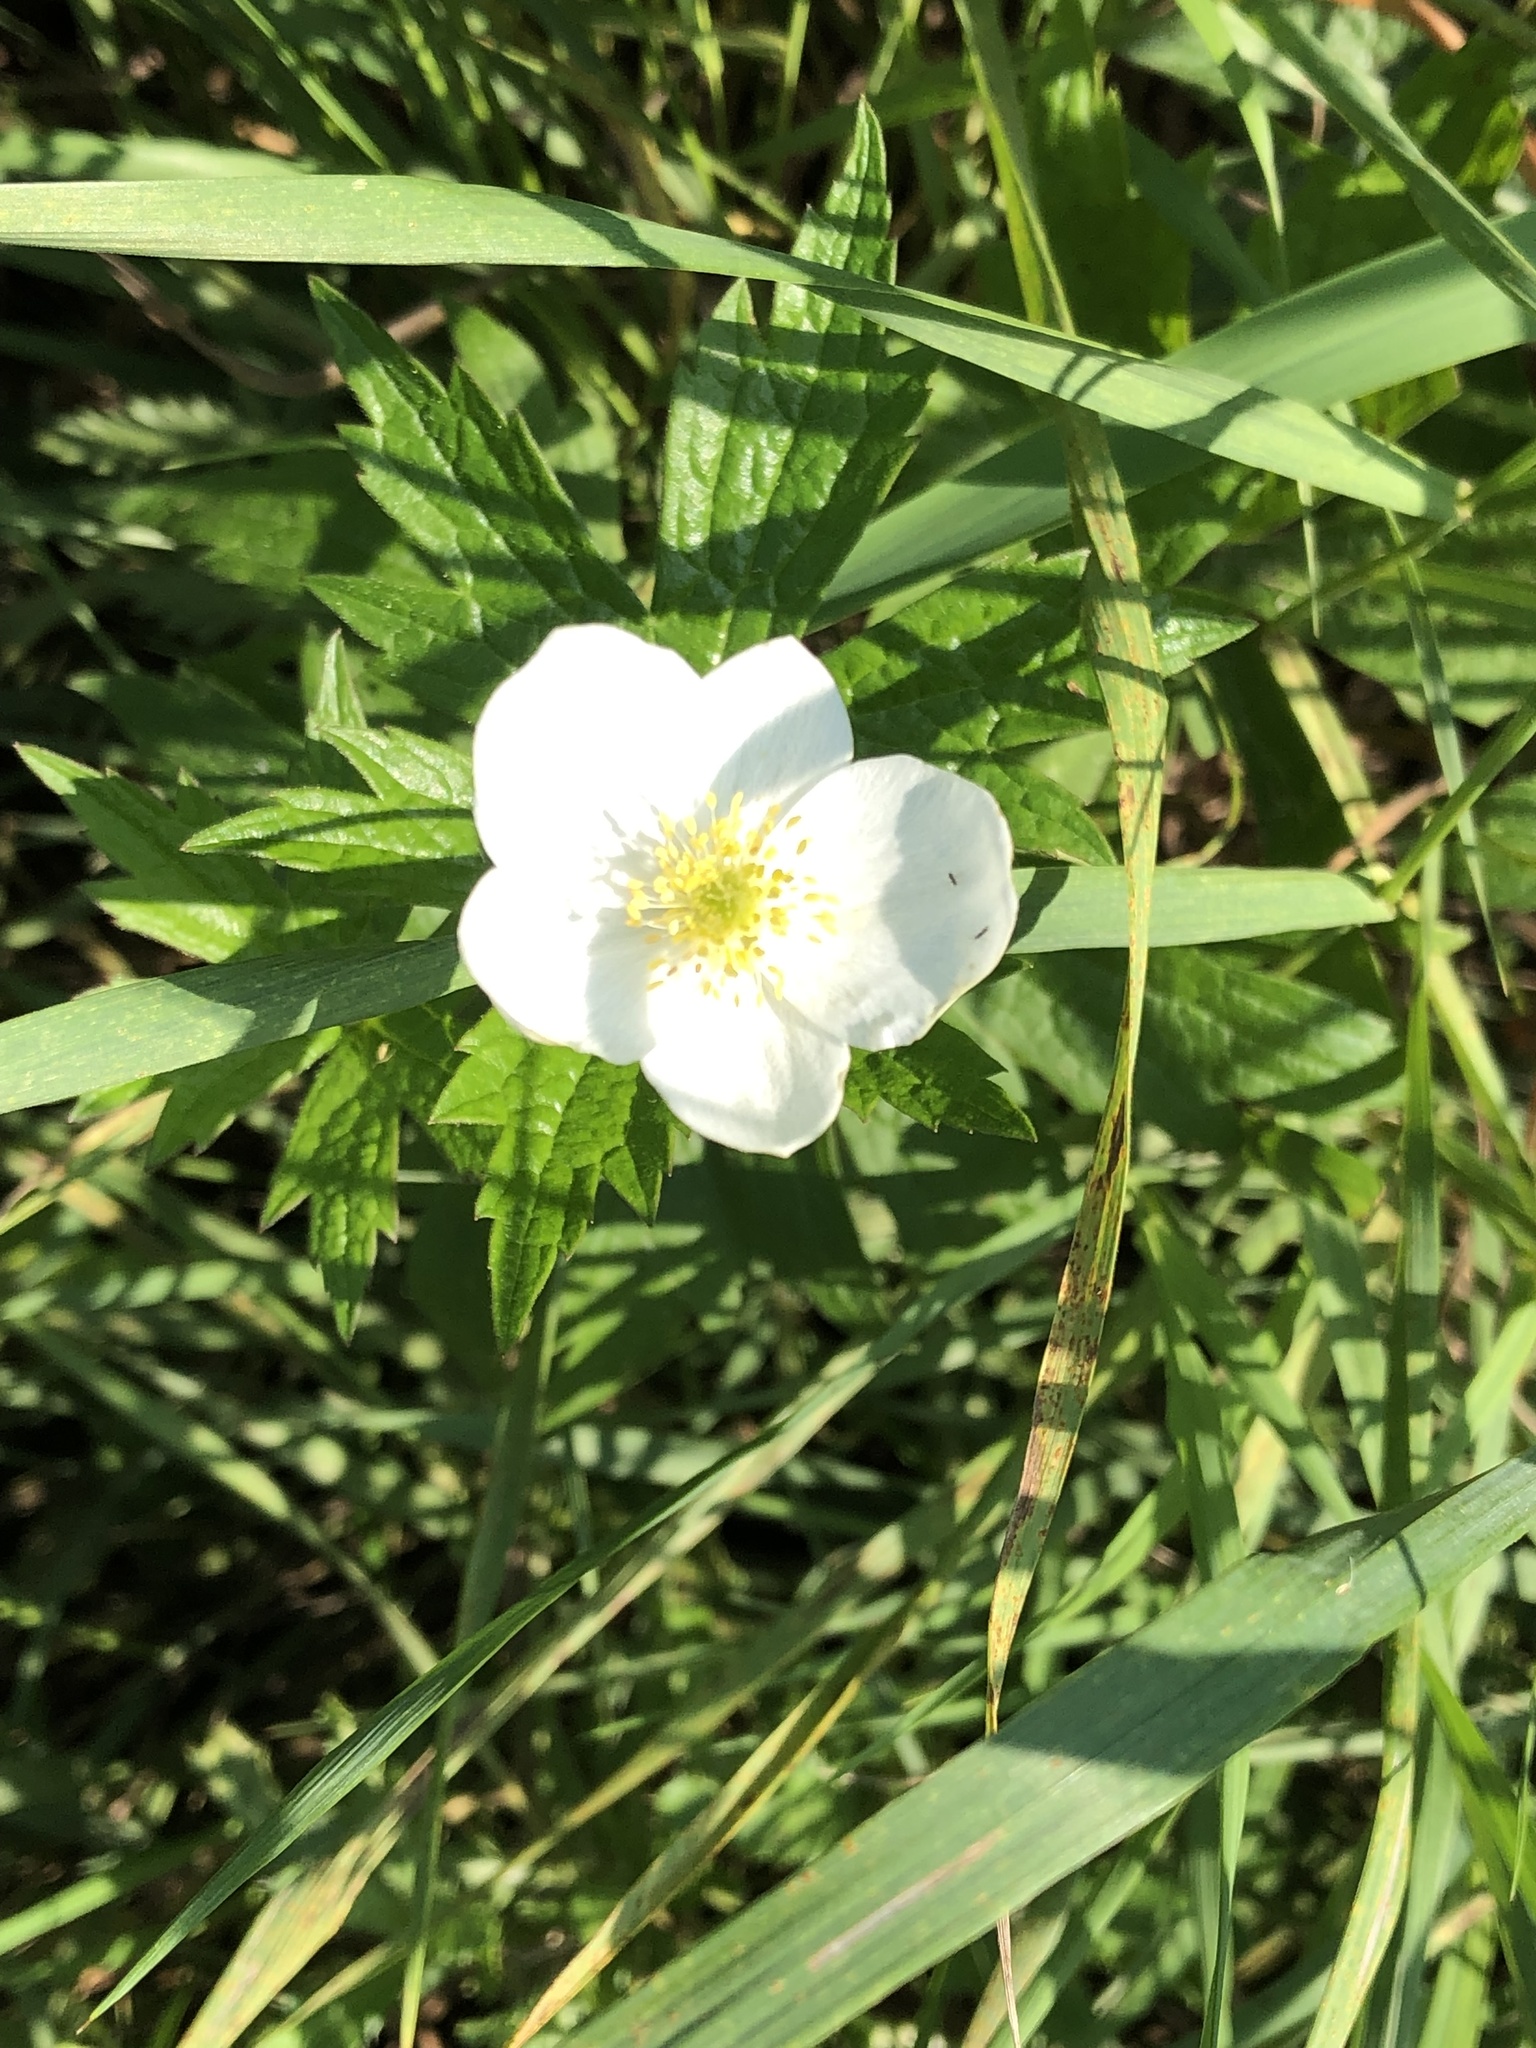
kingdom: Plantae
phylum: Tracheophyta
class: Magnoliopsida
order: Ranunculales
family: Ranunculaceae
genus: Anemonastrum
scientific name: Anemonastrum canadense
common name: Canada anemone
